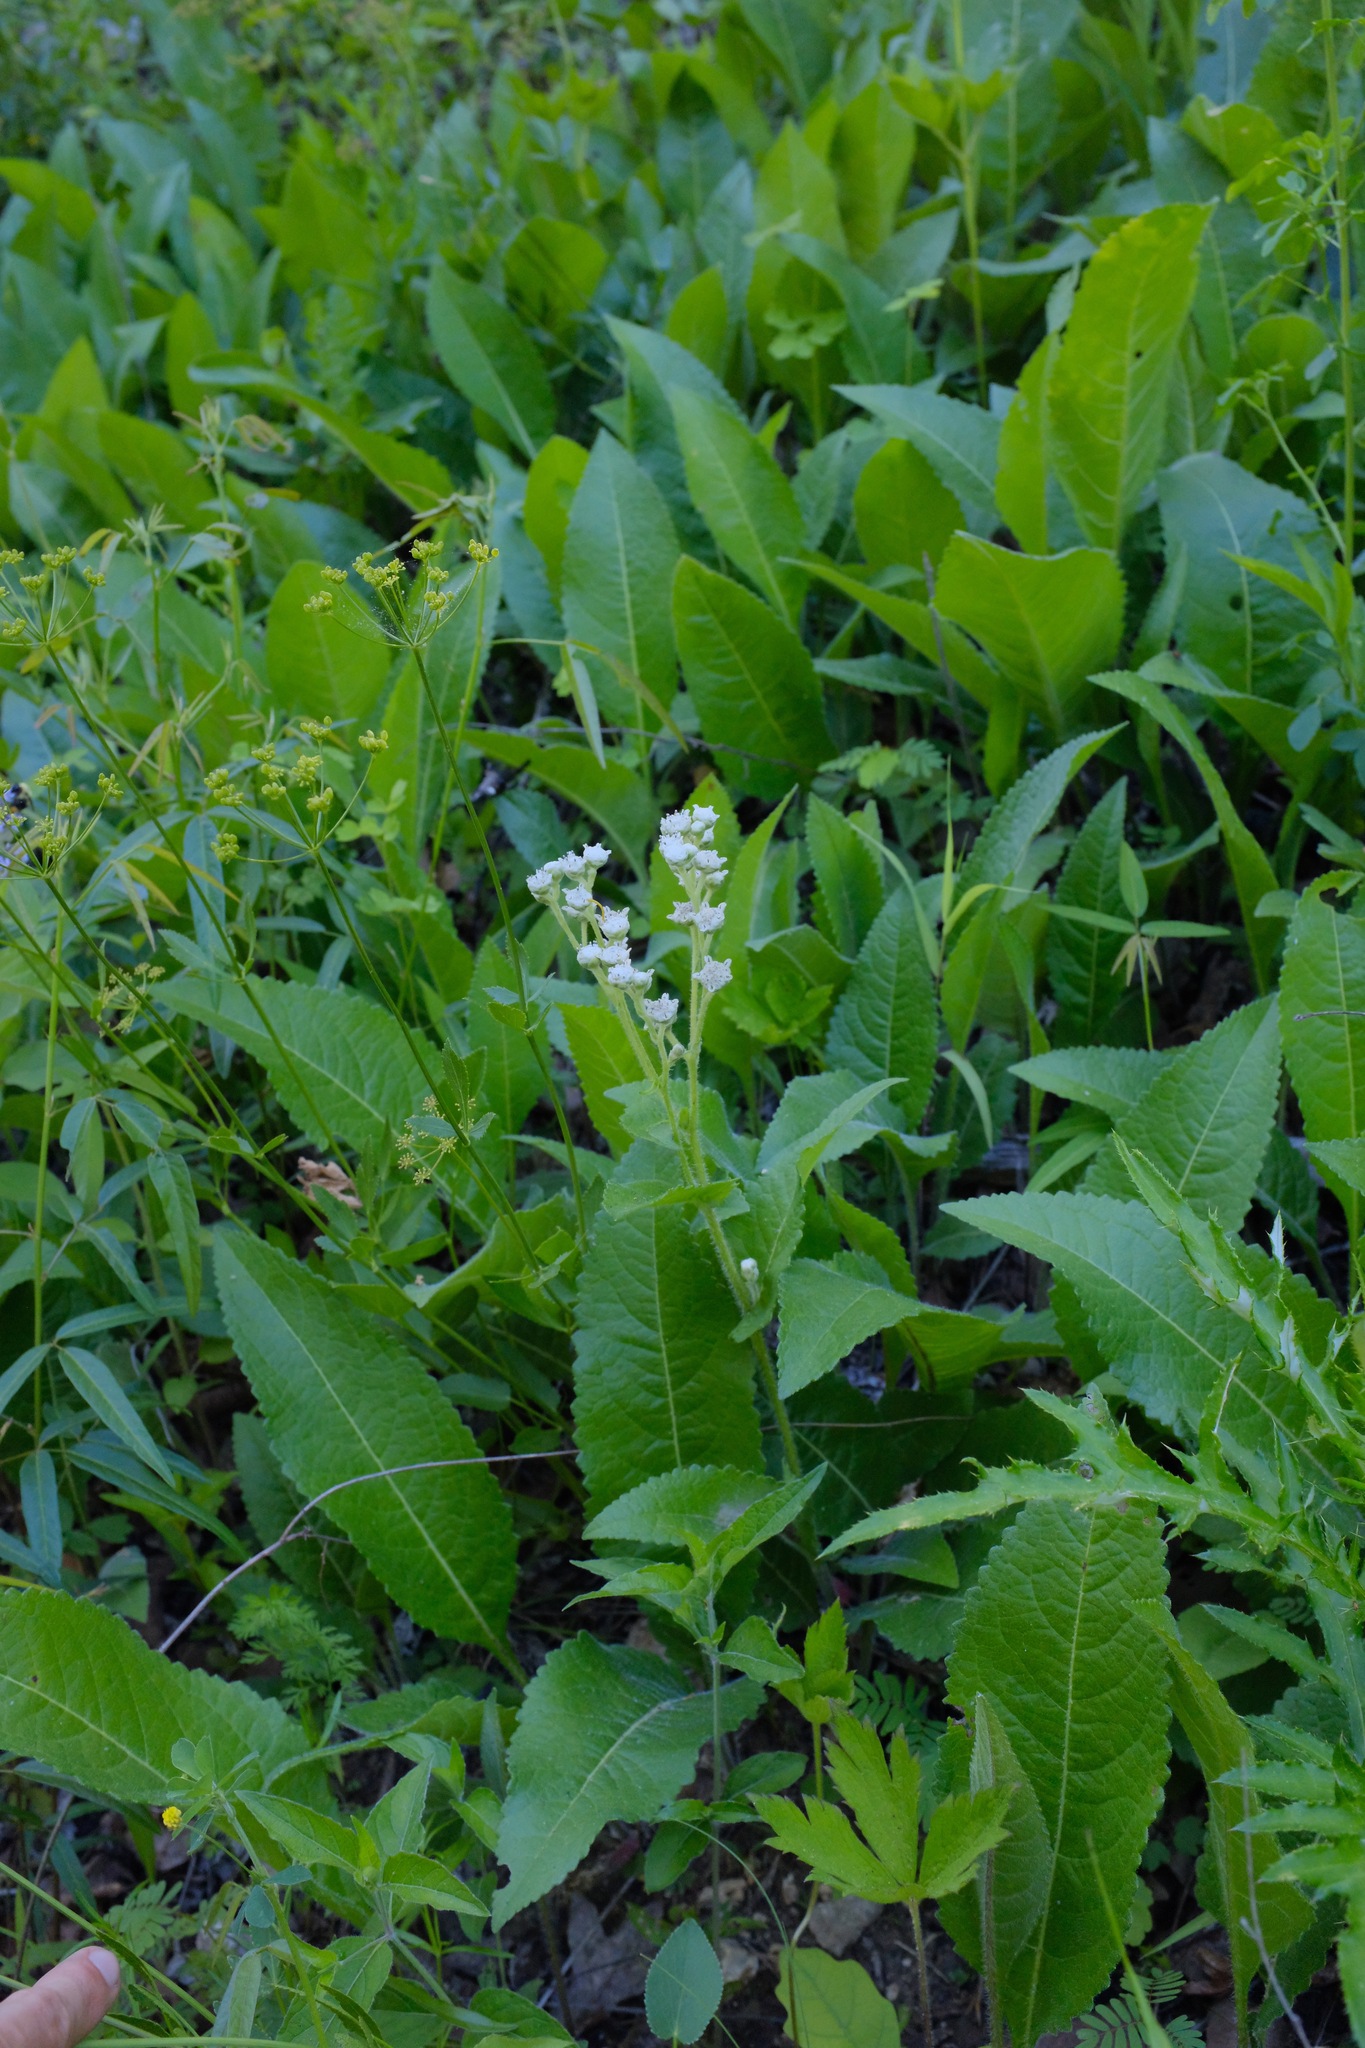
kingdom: Plantae
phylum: Tracheophyta
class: Magnoliopsida
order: Asterales
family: Asteraceae
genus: Parthenium
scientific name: Parthenium hispidum
